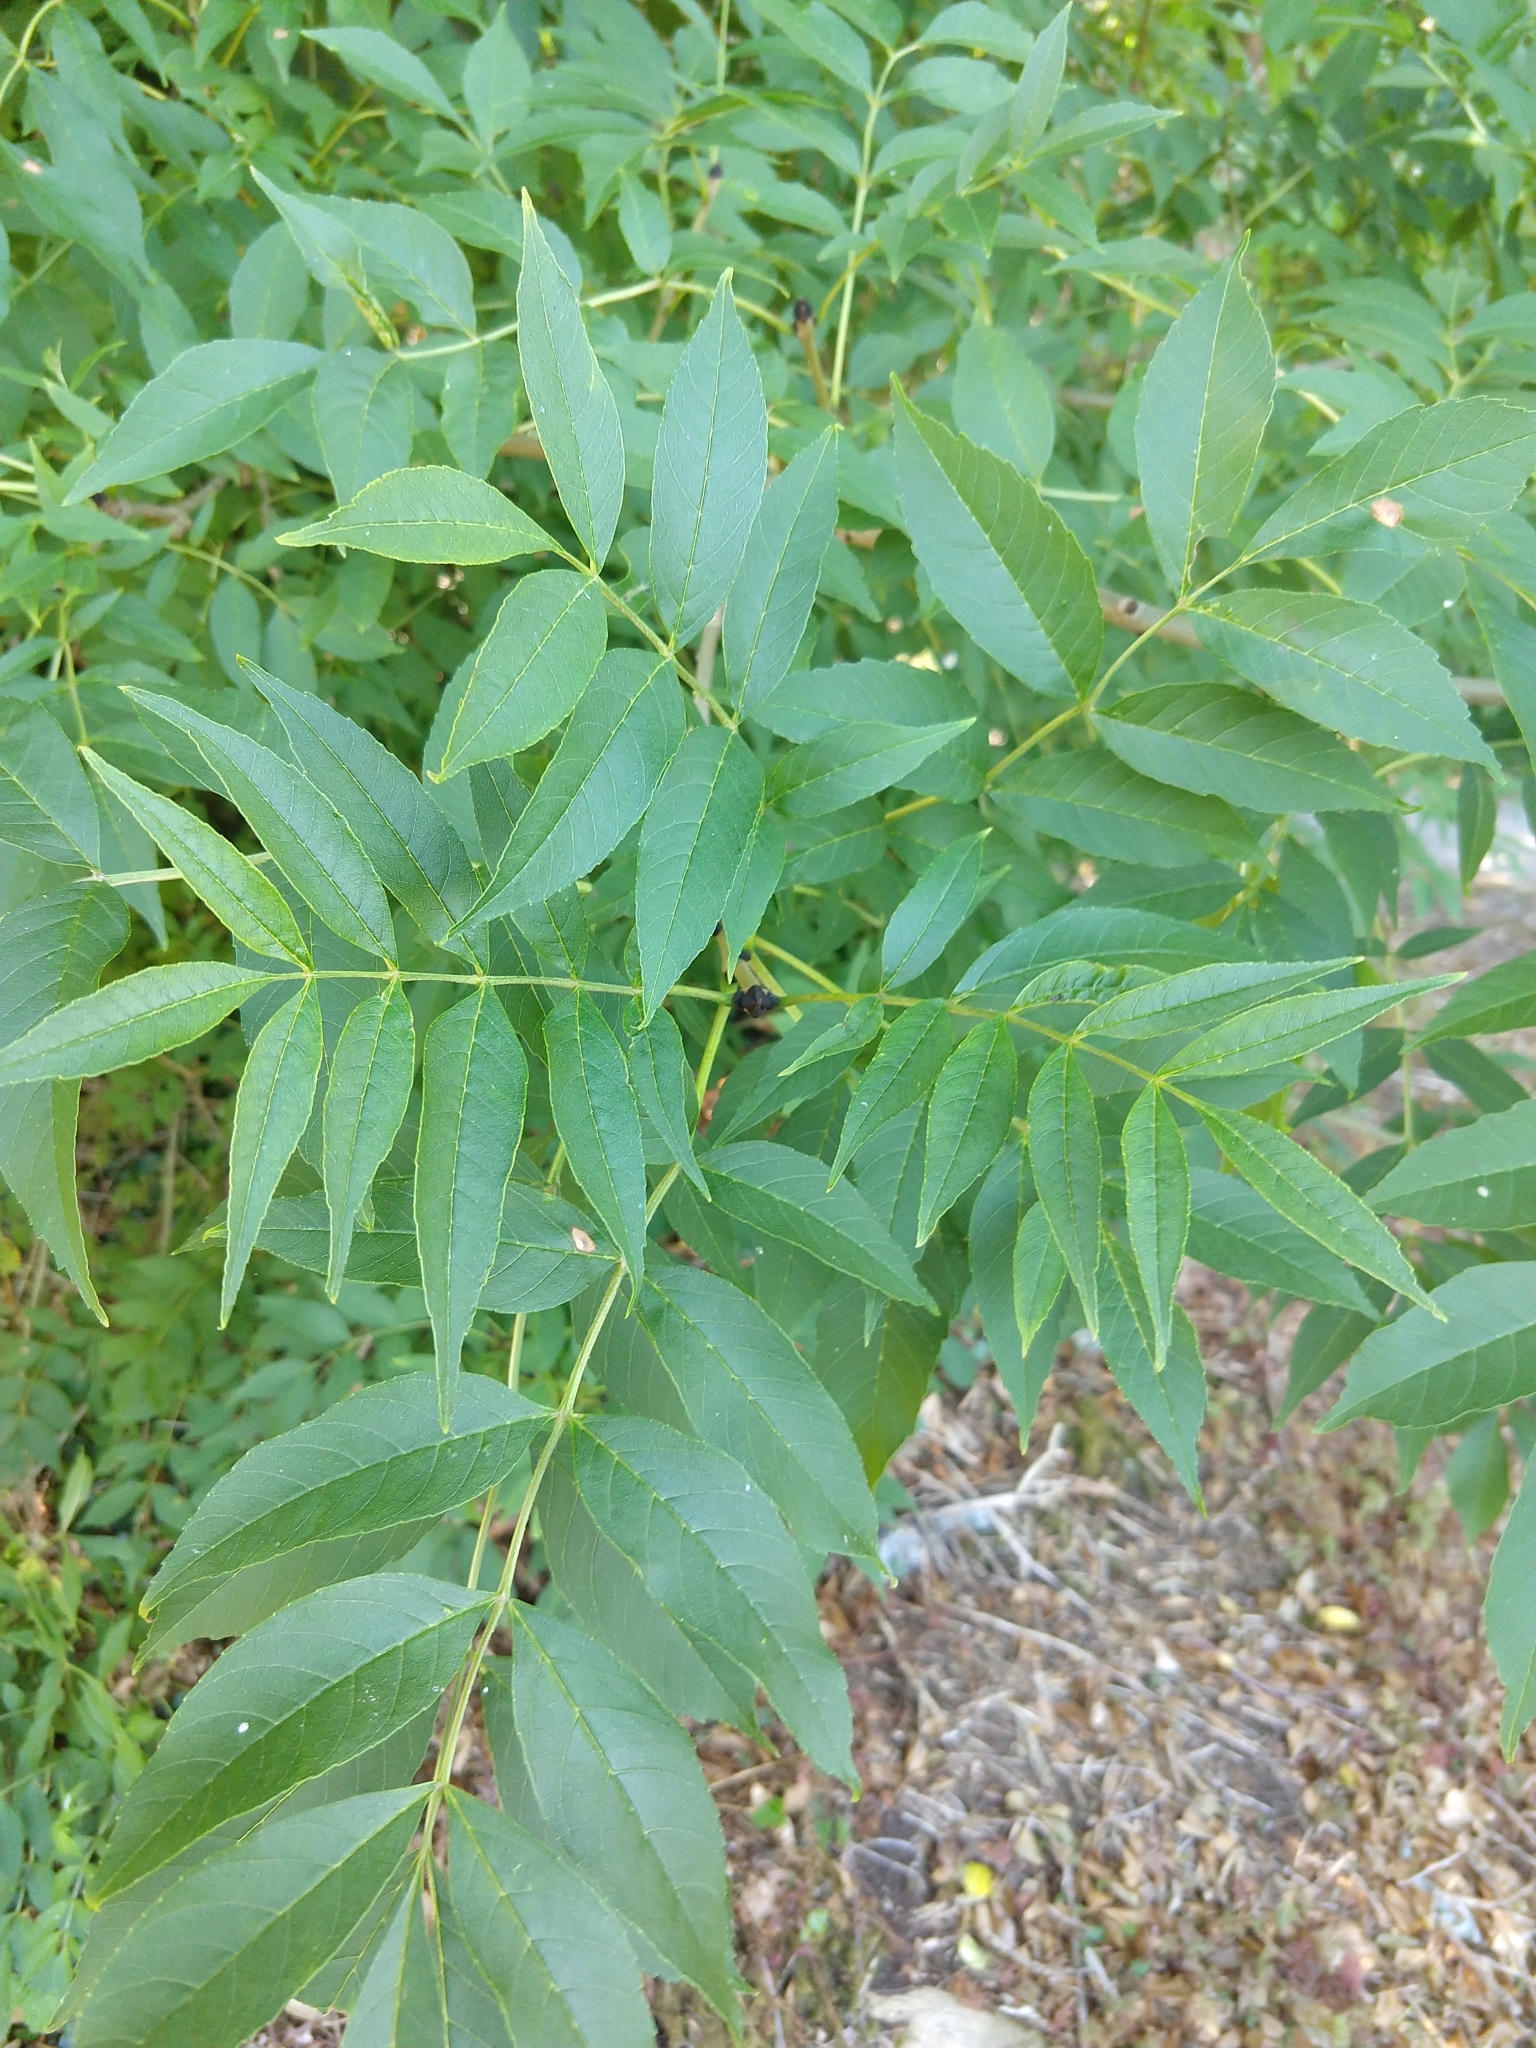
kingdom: Plantae
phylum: Tracheophyta
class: Magnoliopsida
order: Lamiales
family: Oleaceae
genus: Fraxinus
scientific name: Fraxinus excelsior
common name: European ash
